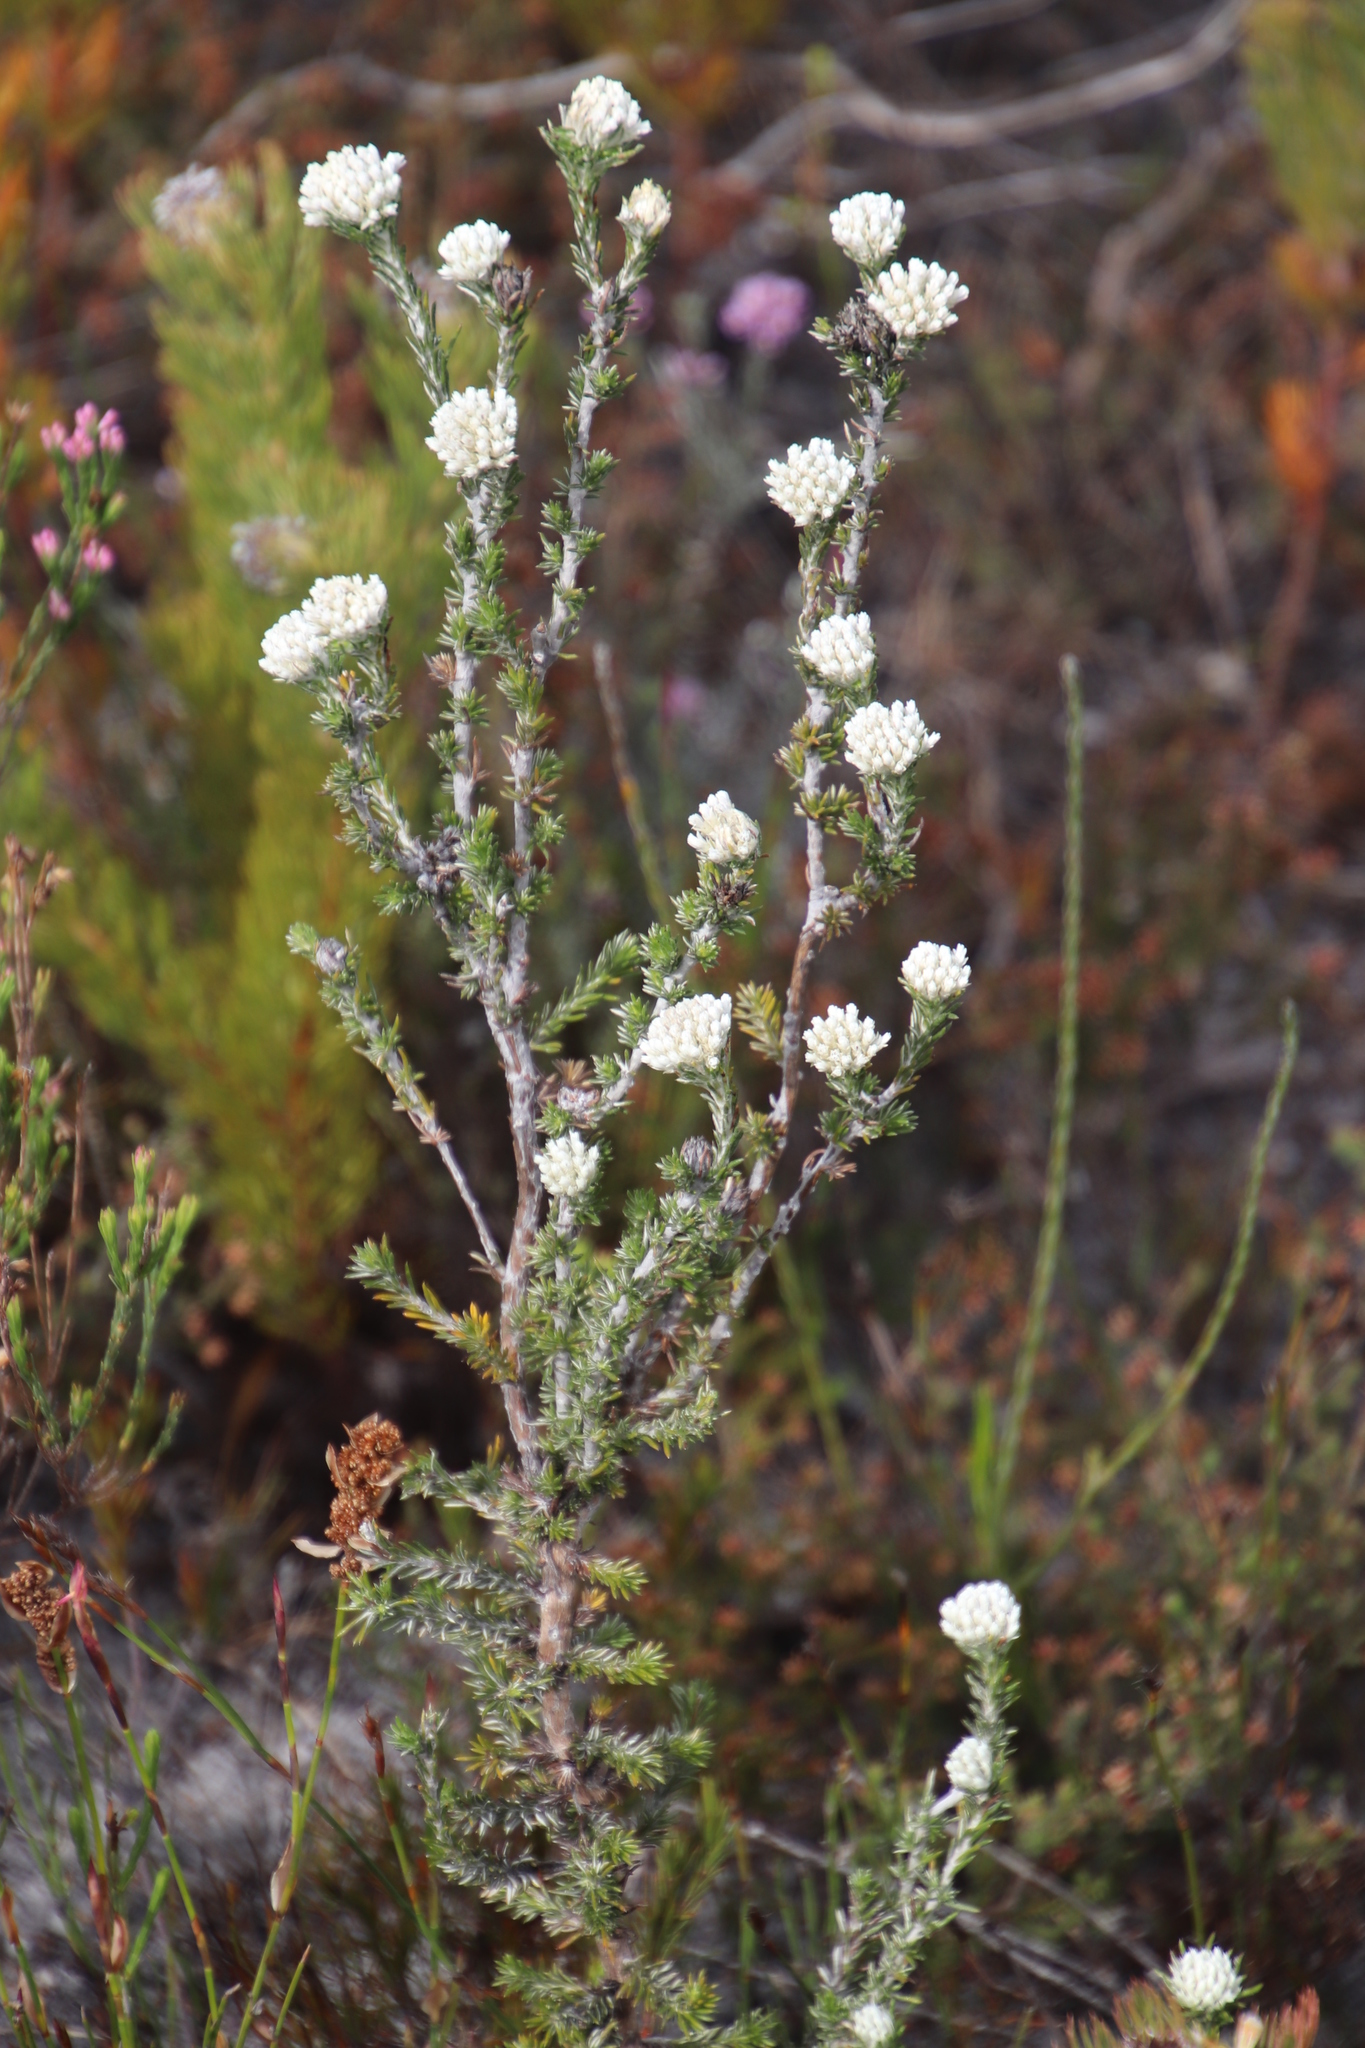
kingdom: Plantae
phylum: Tracheophyta
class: Magnoliopsida
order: Asterales
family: Asteraceae
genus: Metalasia
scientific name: Metalasia compacta
